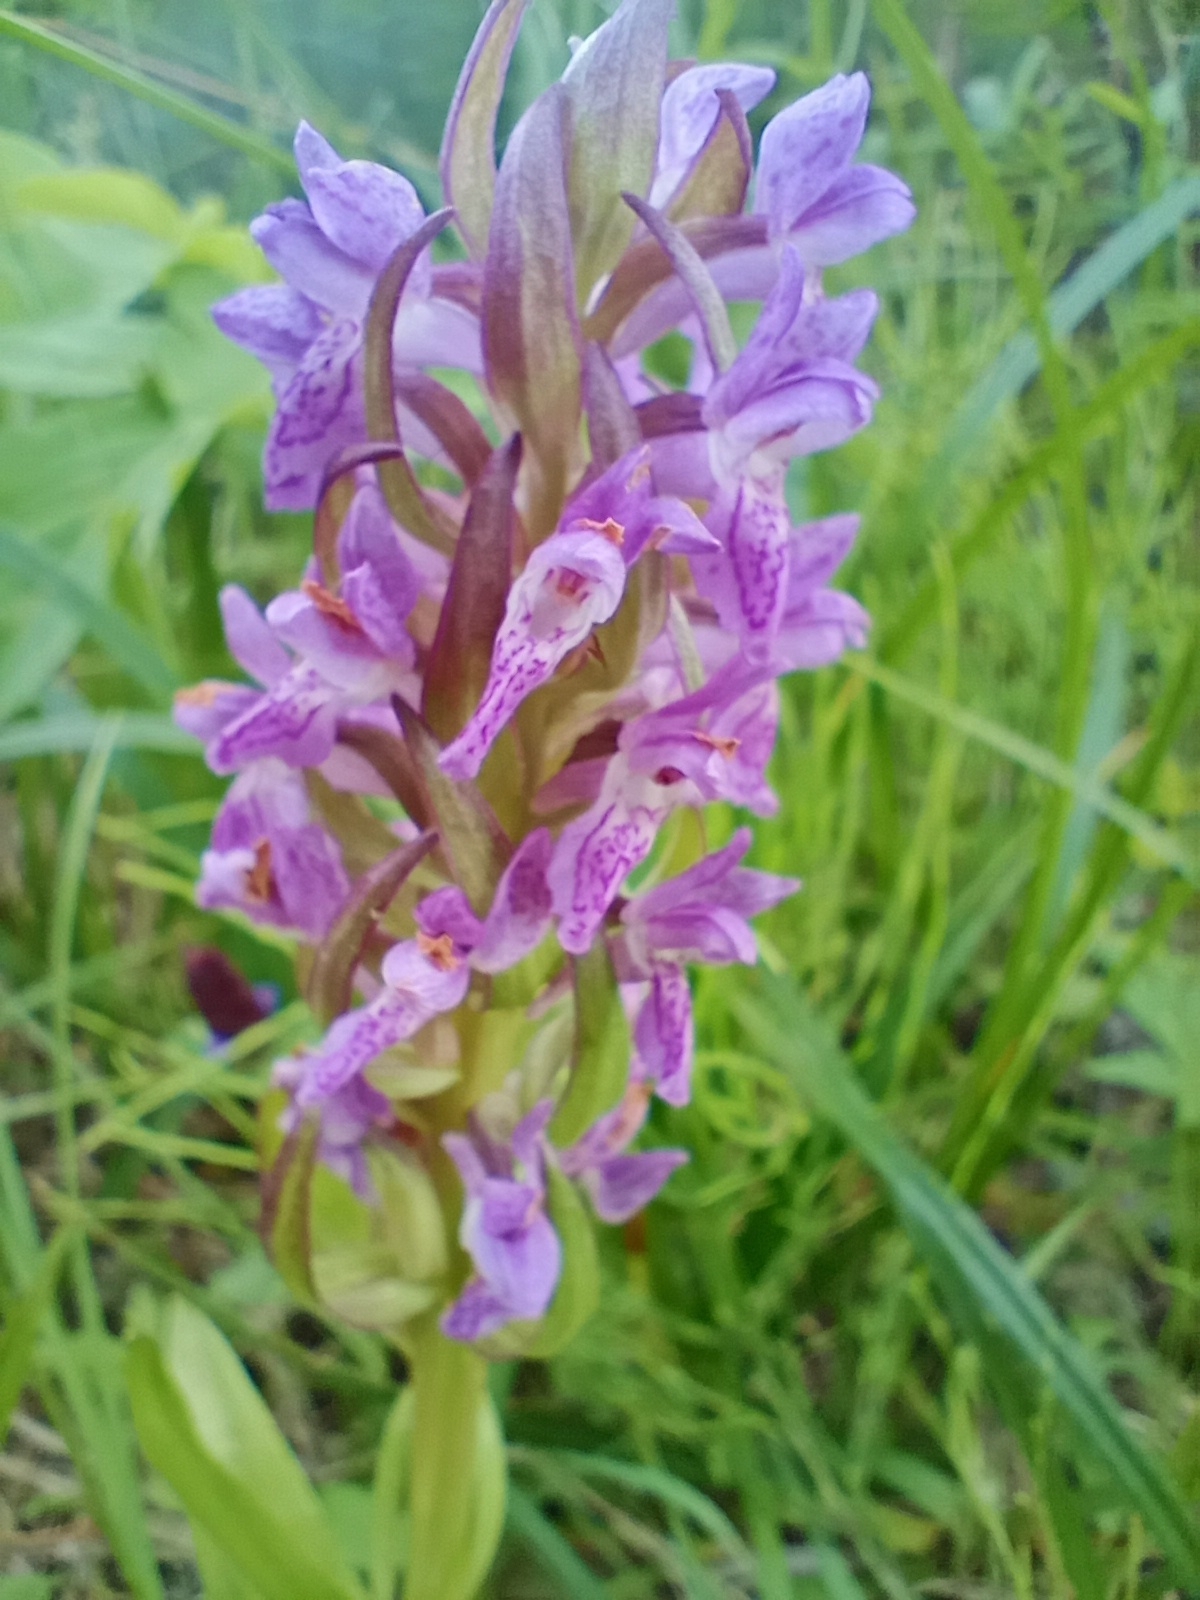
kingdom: Plantae
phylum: Tracheophyta
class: Liliopsida
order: Asparagales
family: Orchidaceae
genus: Dactylorhiza
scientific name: Dactylorhiza incarnata
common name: Early marsh-orchid
